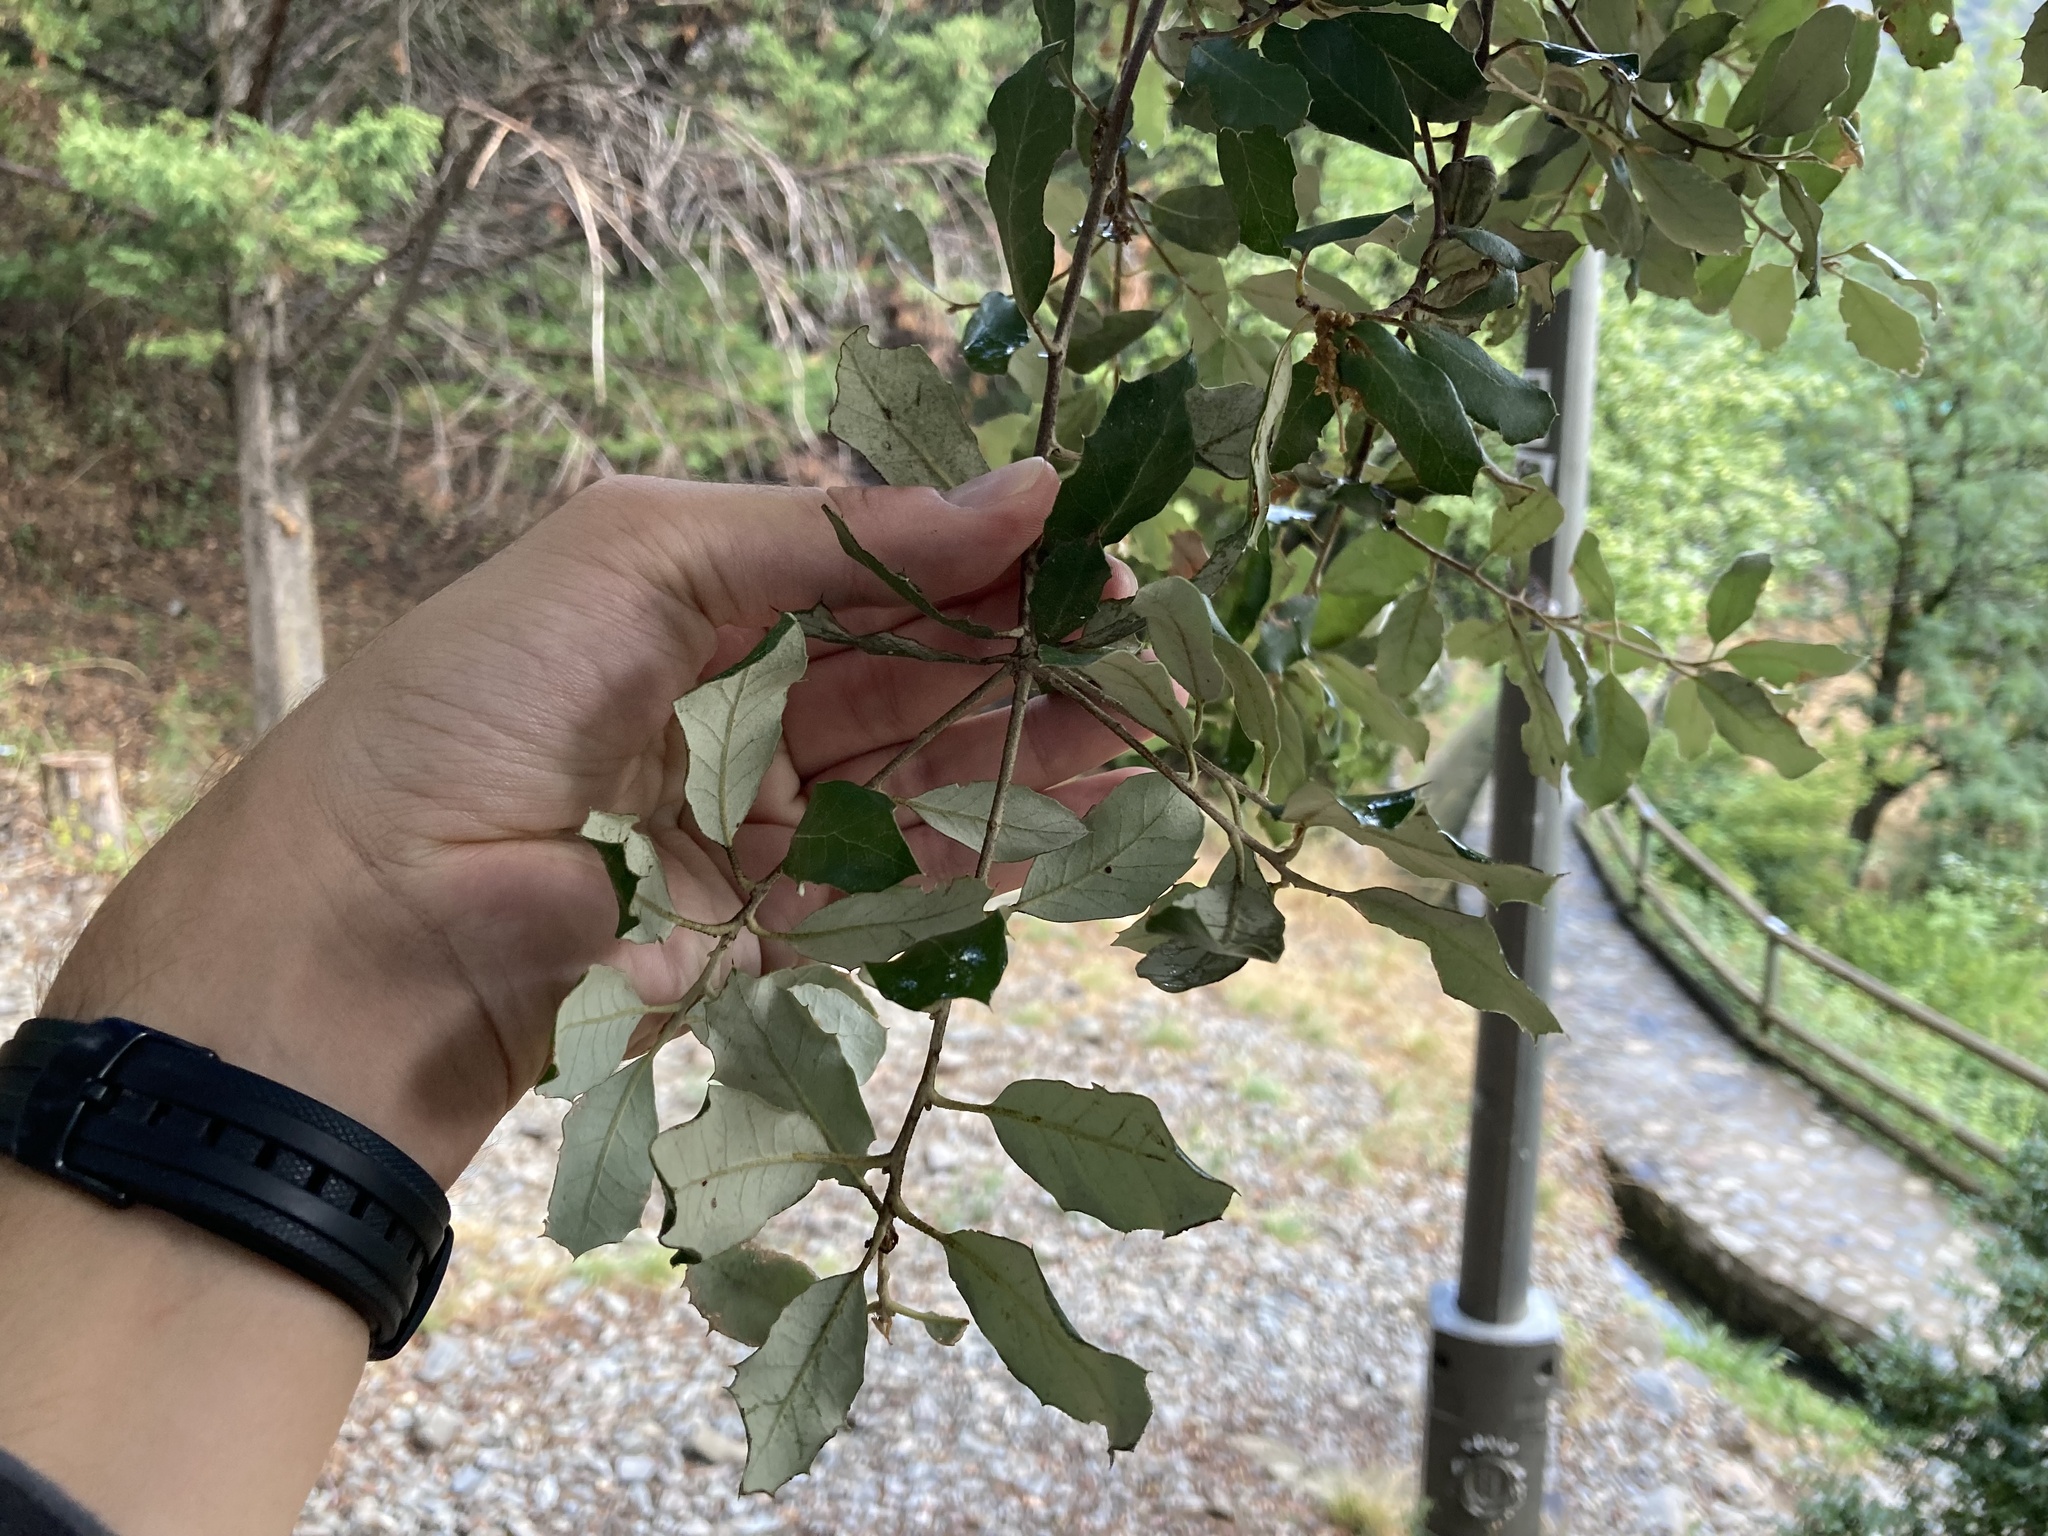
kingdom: Plantae
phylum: Tracheophyta
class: Magnoliopsida
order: Fagales
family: Fagaceae
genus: Quercus
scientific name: Quercus ilex
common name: Evergreen oak
